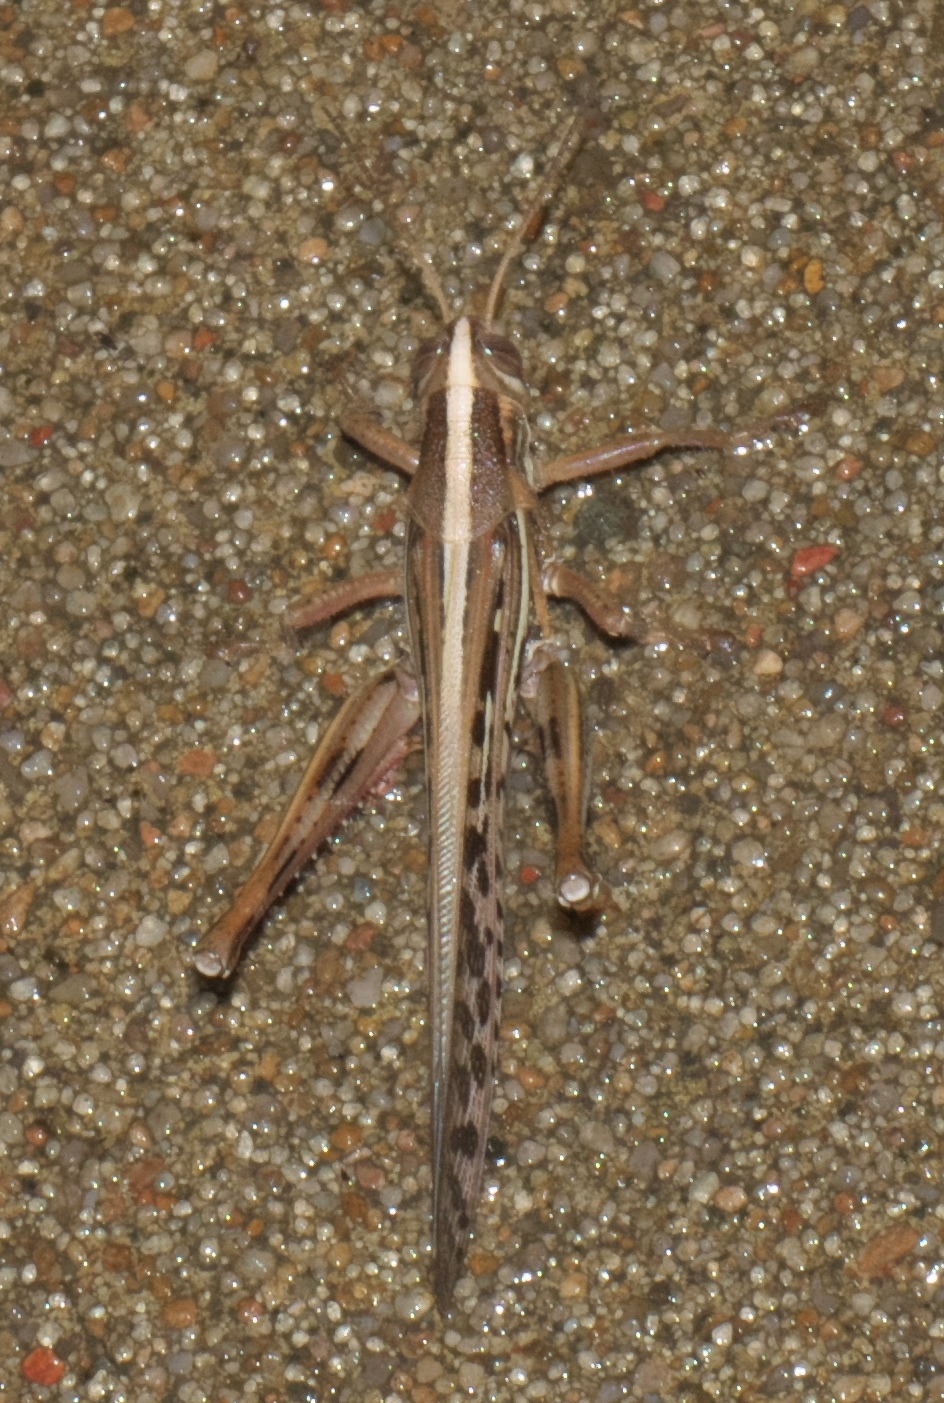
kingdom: Animalia
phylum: Arthropoda
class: Insecta
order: Orthoptera
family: Acrididae
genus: Schistocerca
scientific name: Schistocerca americana
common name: American bird locust
